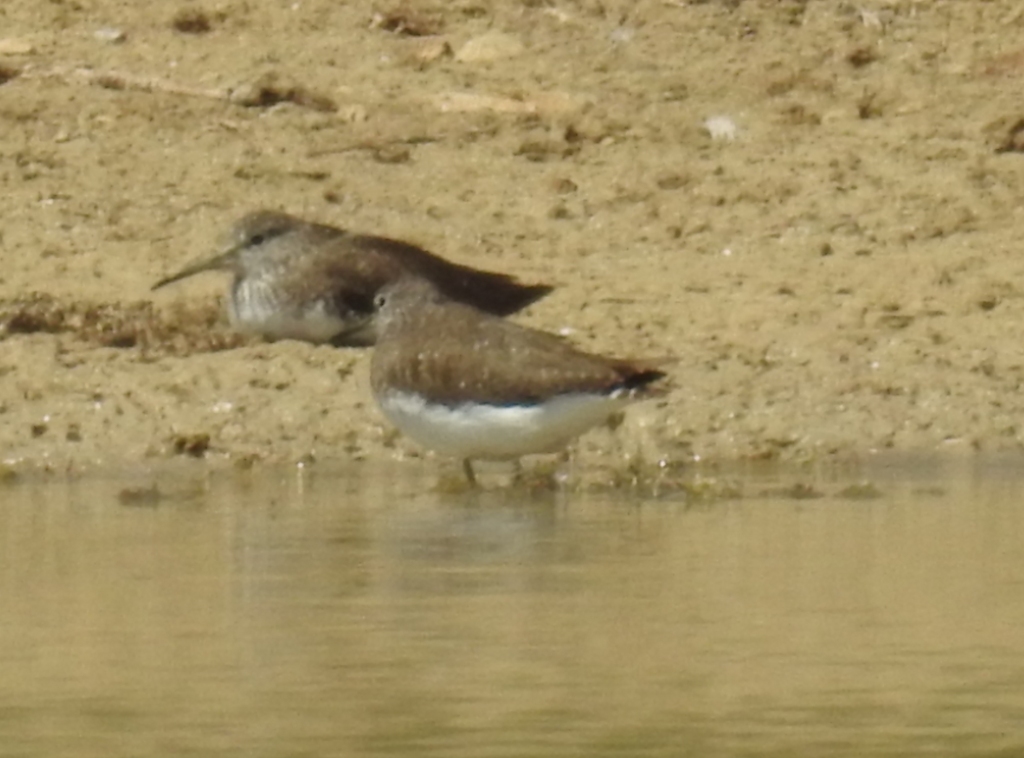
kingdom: Animalia
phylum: Chordata
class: Aves
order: Charadriiformes
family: Scolopacidae
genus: Tringa
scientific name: Tringa ochropus
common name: Green sandpiper
